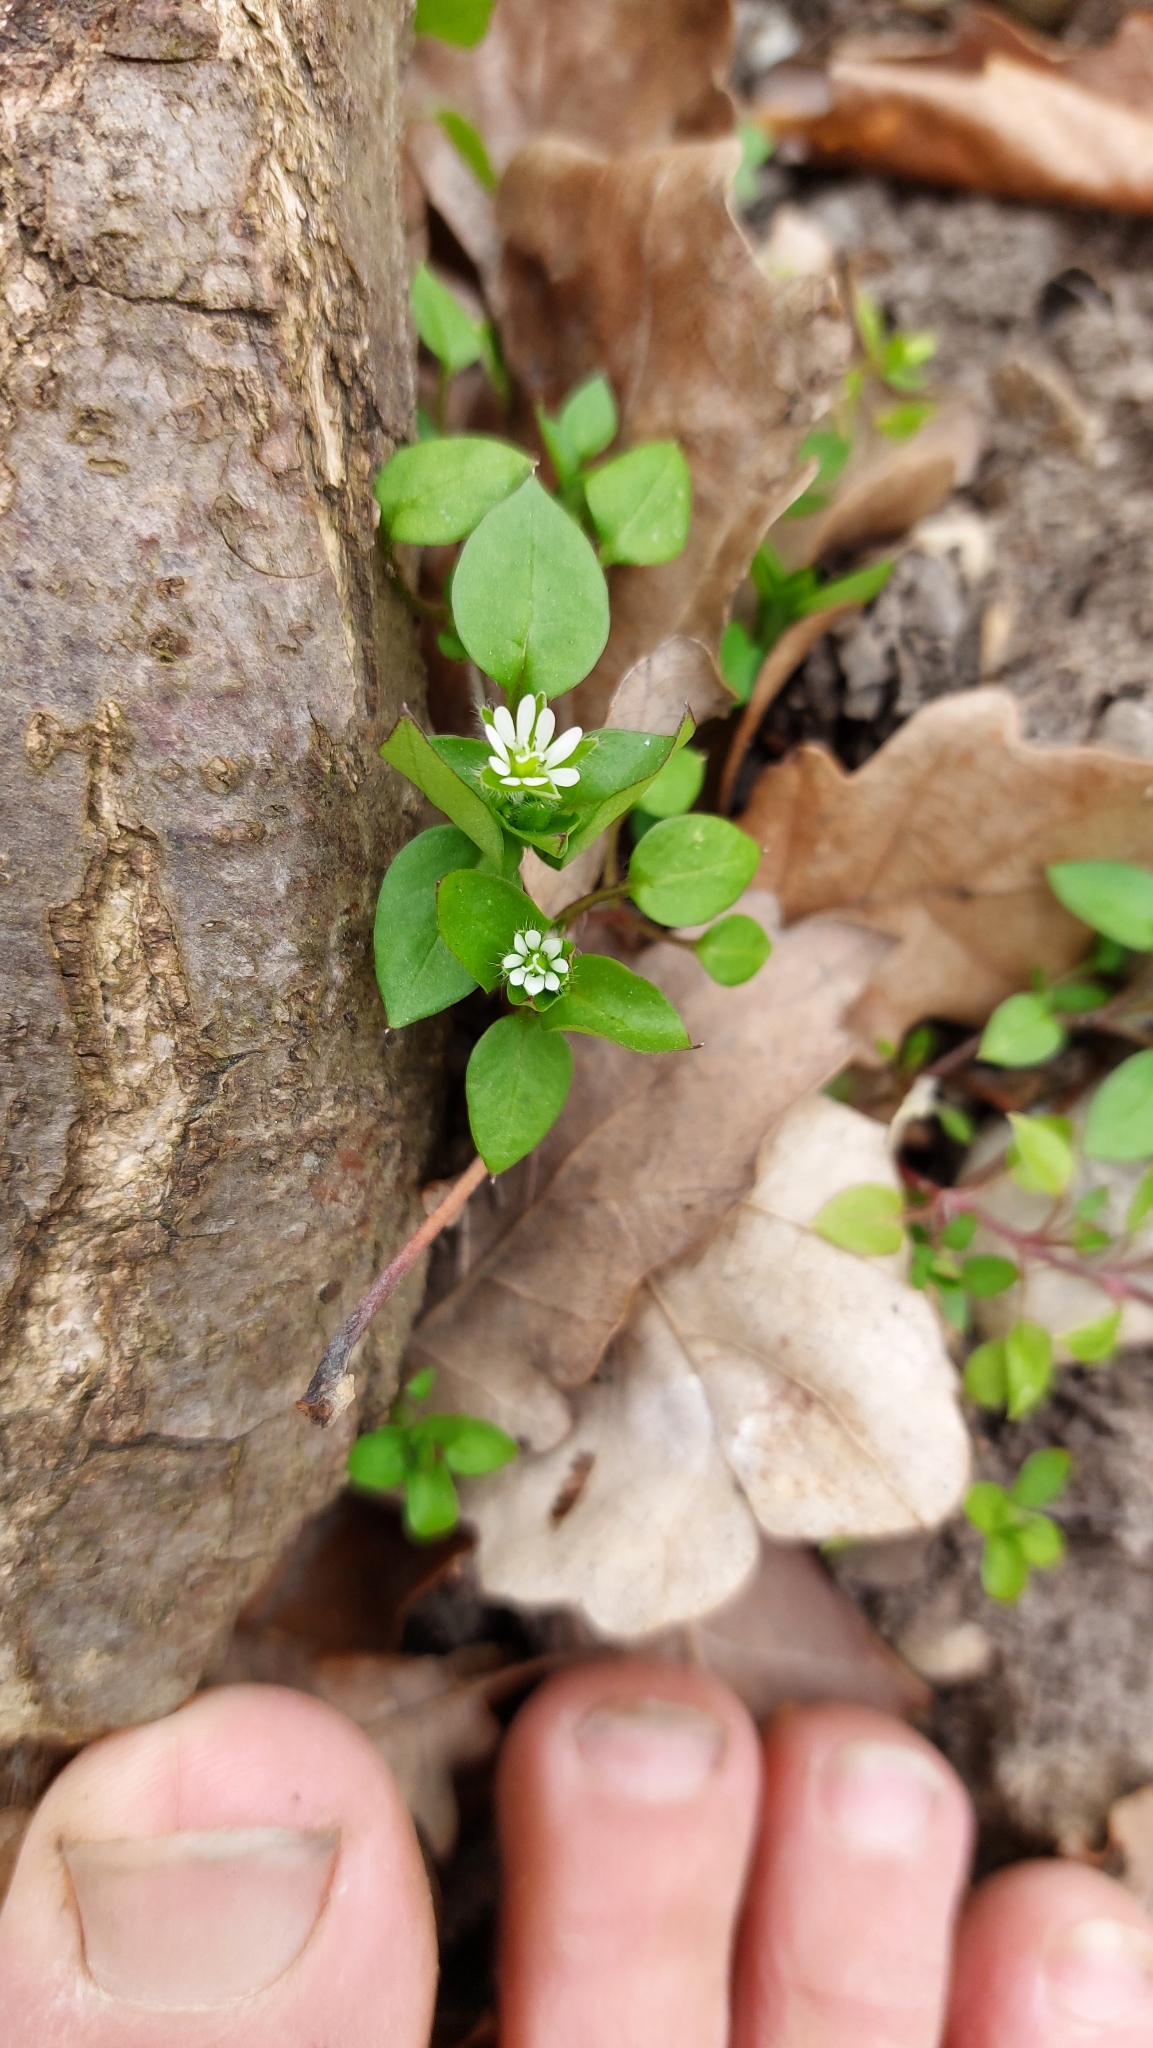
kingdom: Plantae
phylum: Tracheophyta
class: Magnoliopsida
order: Caryophyllales
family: Caryophyllaceae
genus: Stellaria
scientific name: Stellaria media
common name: Common chickweed
